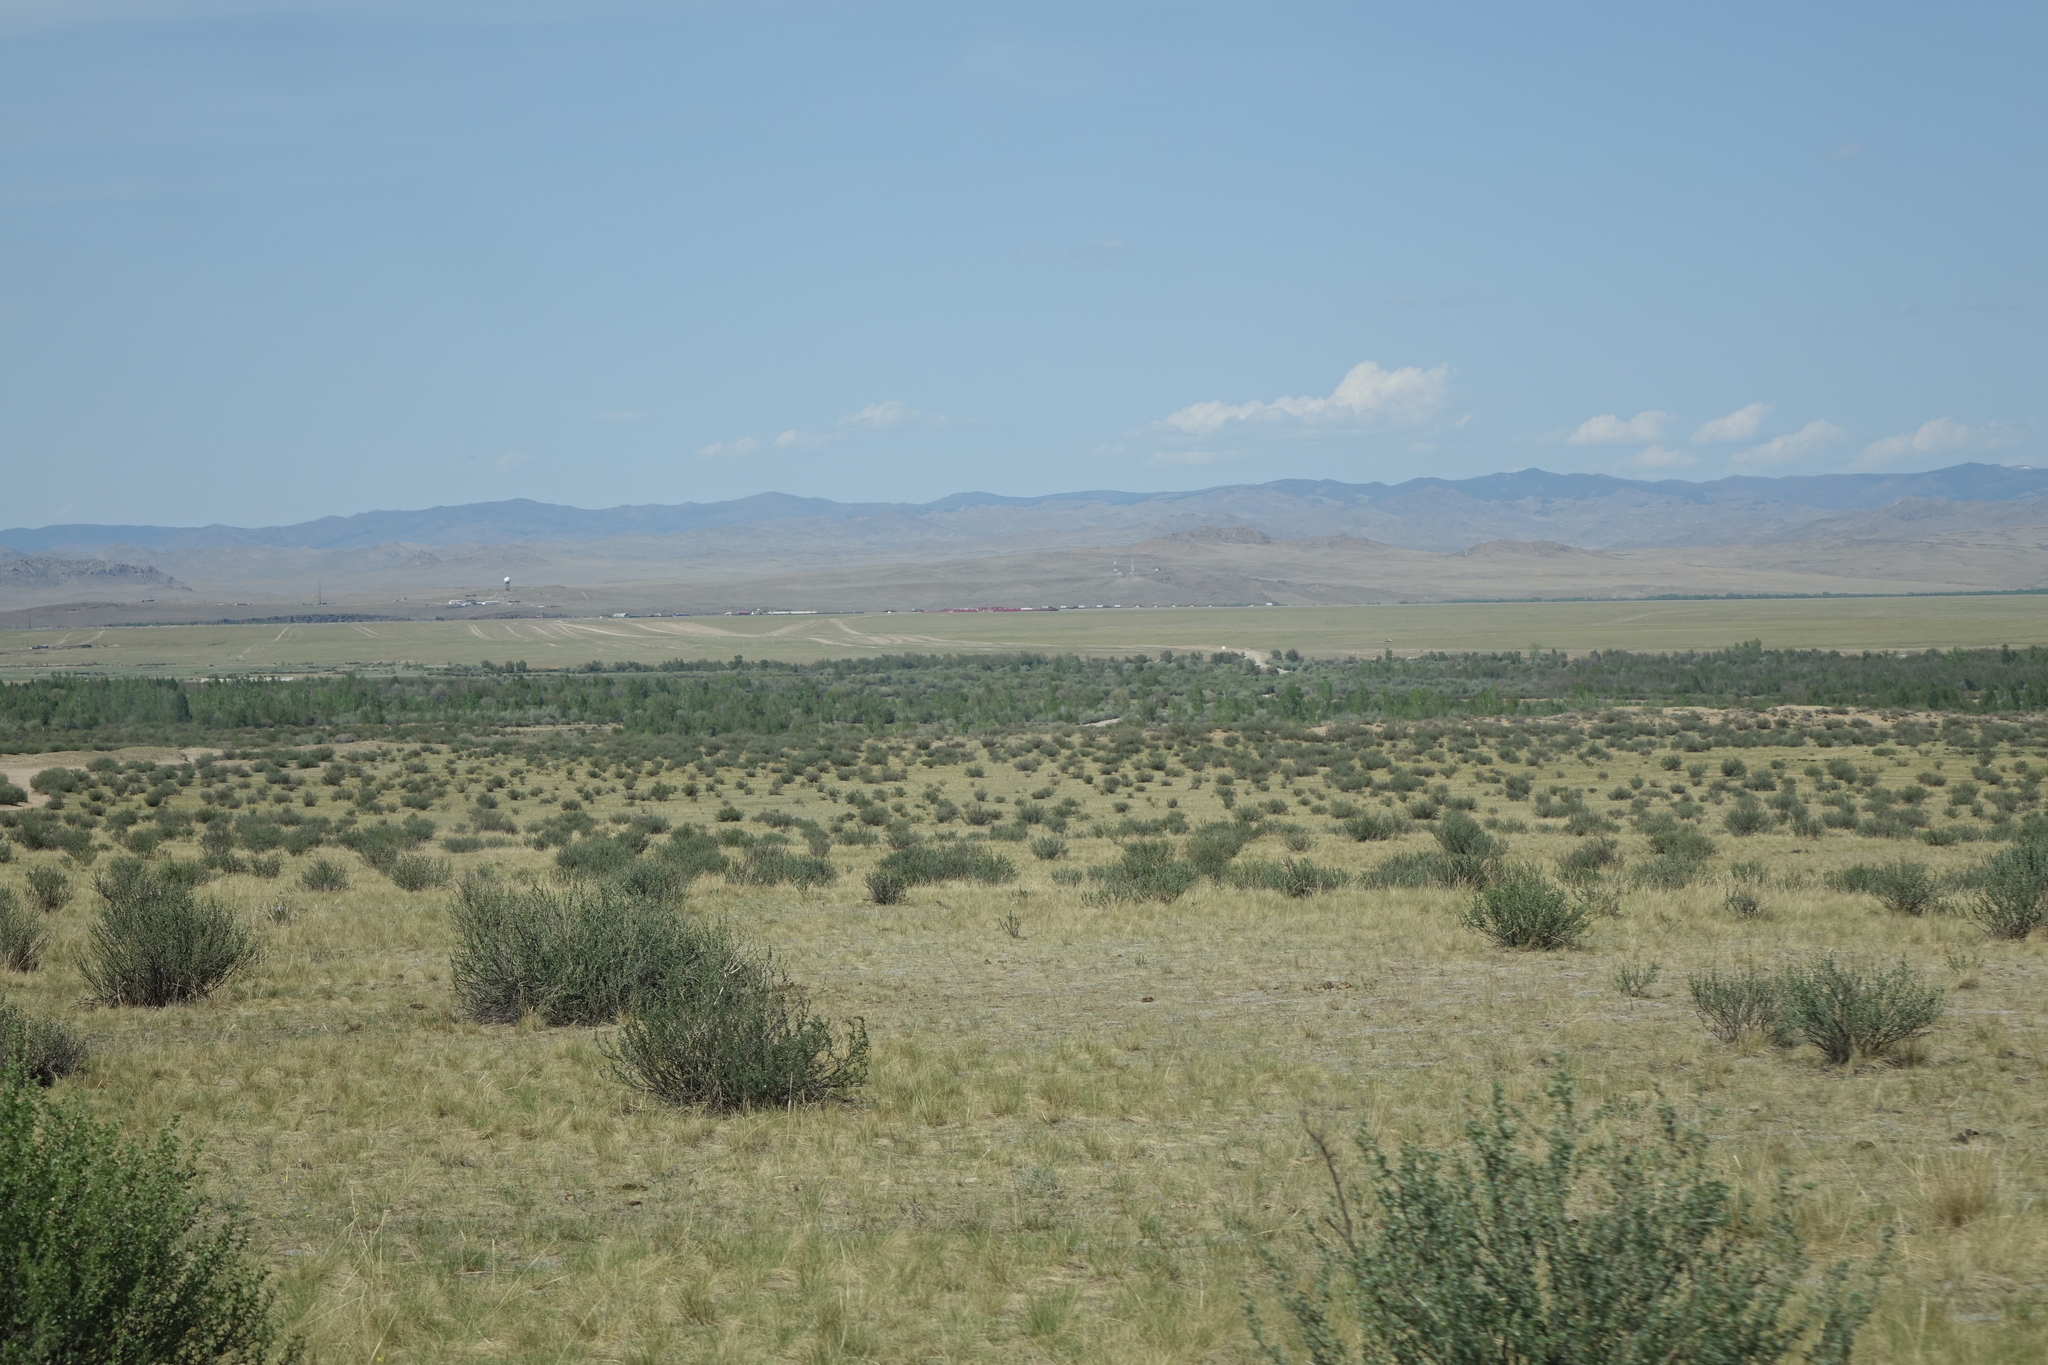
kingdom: Plantae
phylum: Tracheophyta
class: Magnoliopsida
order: Fabales
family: Fabaceae
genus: Caragana
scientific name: Caragana bungei
